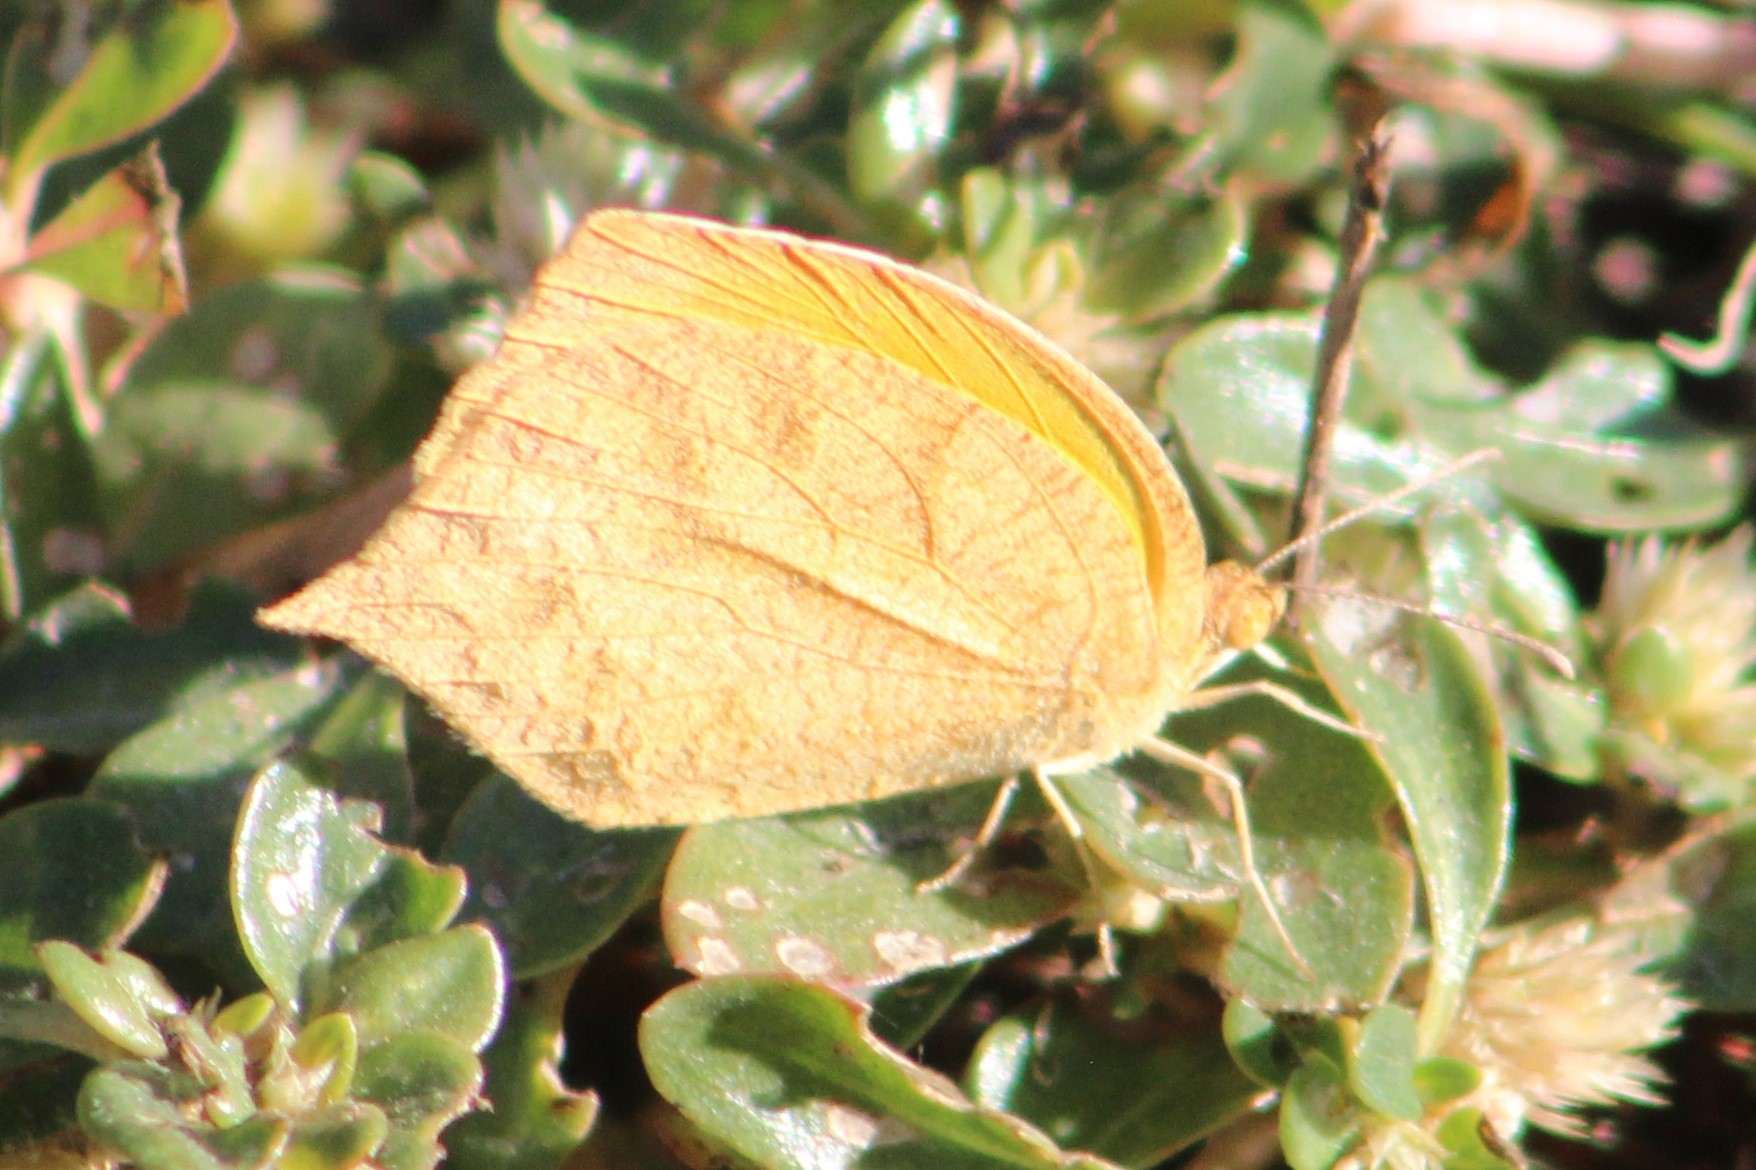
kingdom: Animalia
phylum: Arthropoda
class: Insecta
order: Lepidoptera
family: Pieridae
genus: Pyrisitia
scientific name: Pyrisitia proterpia
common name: Tailed orange
